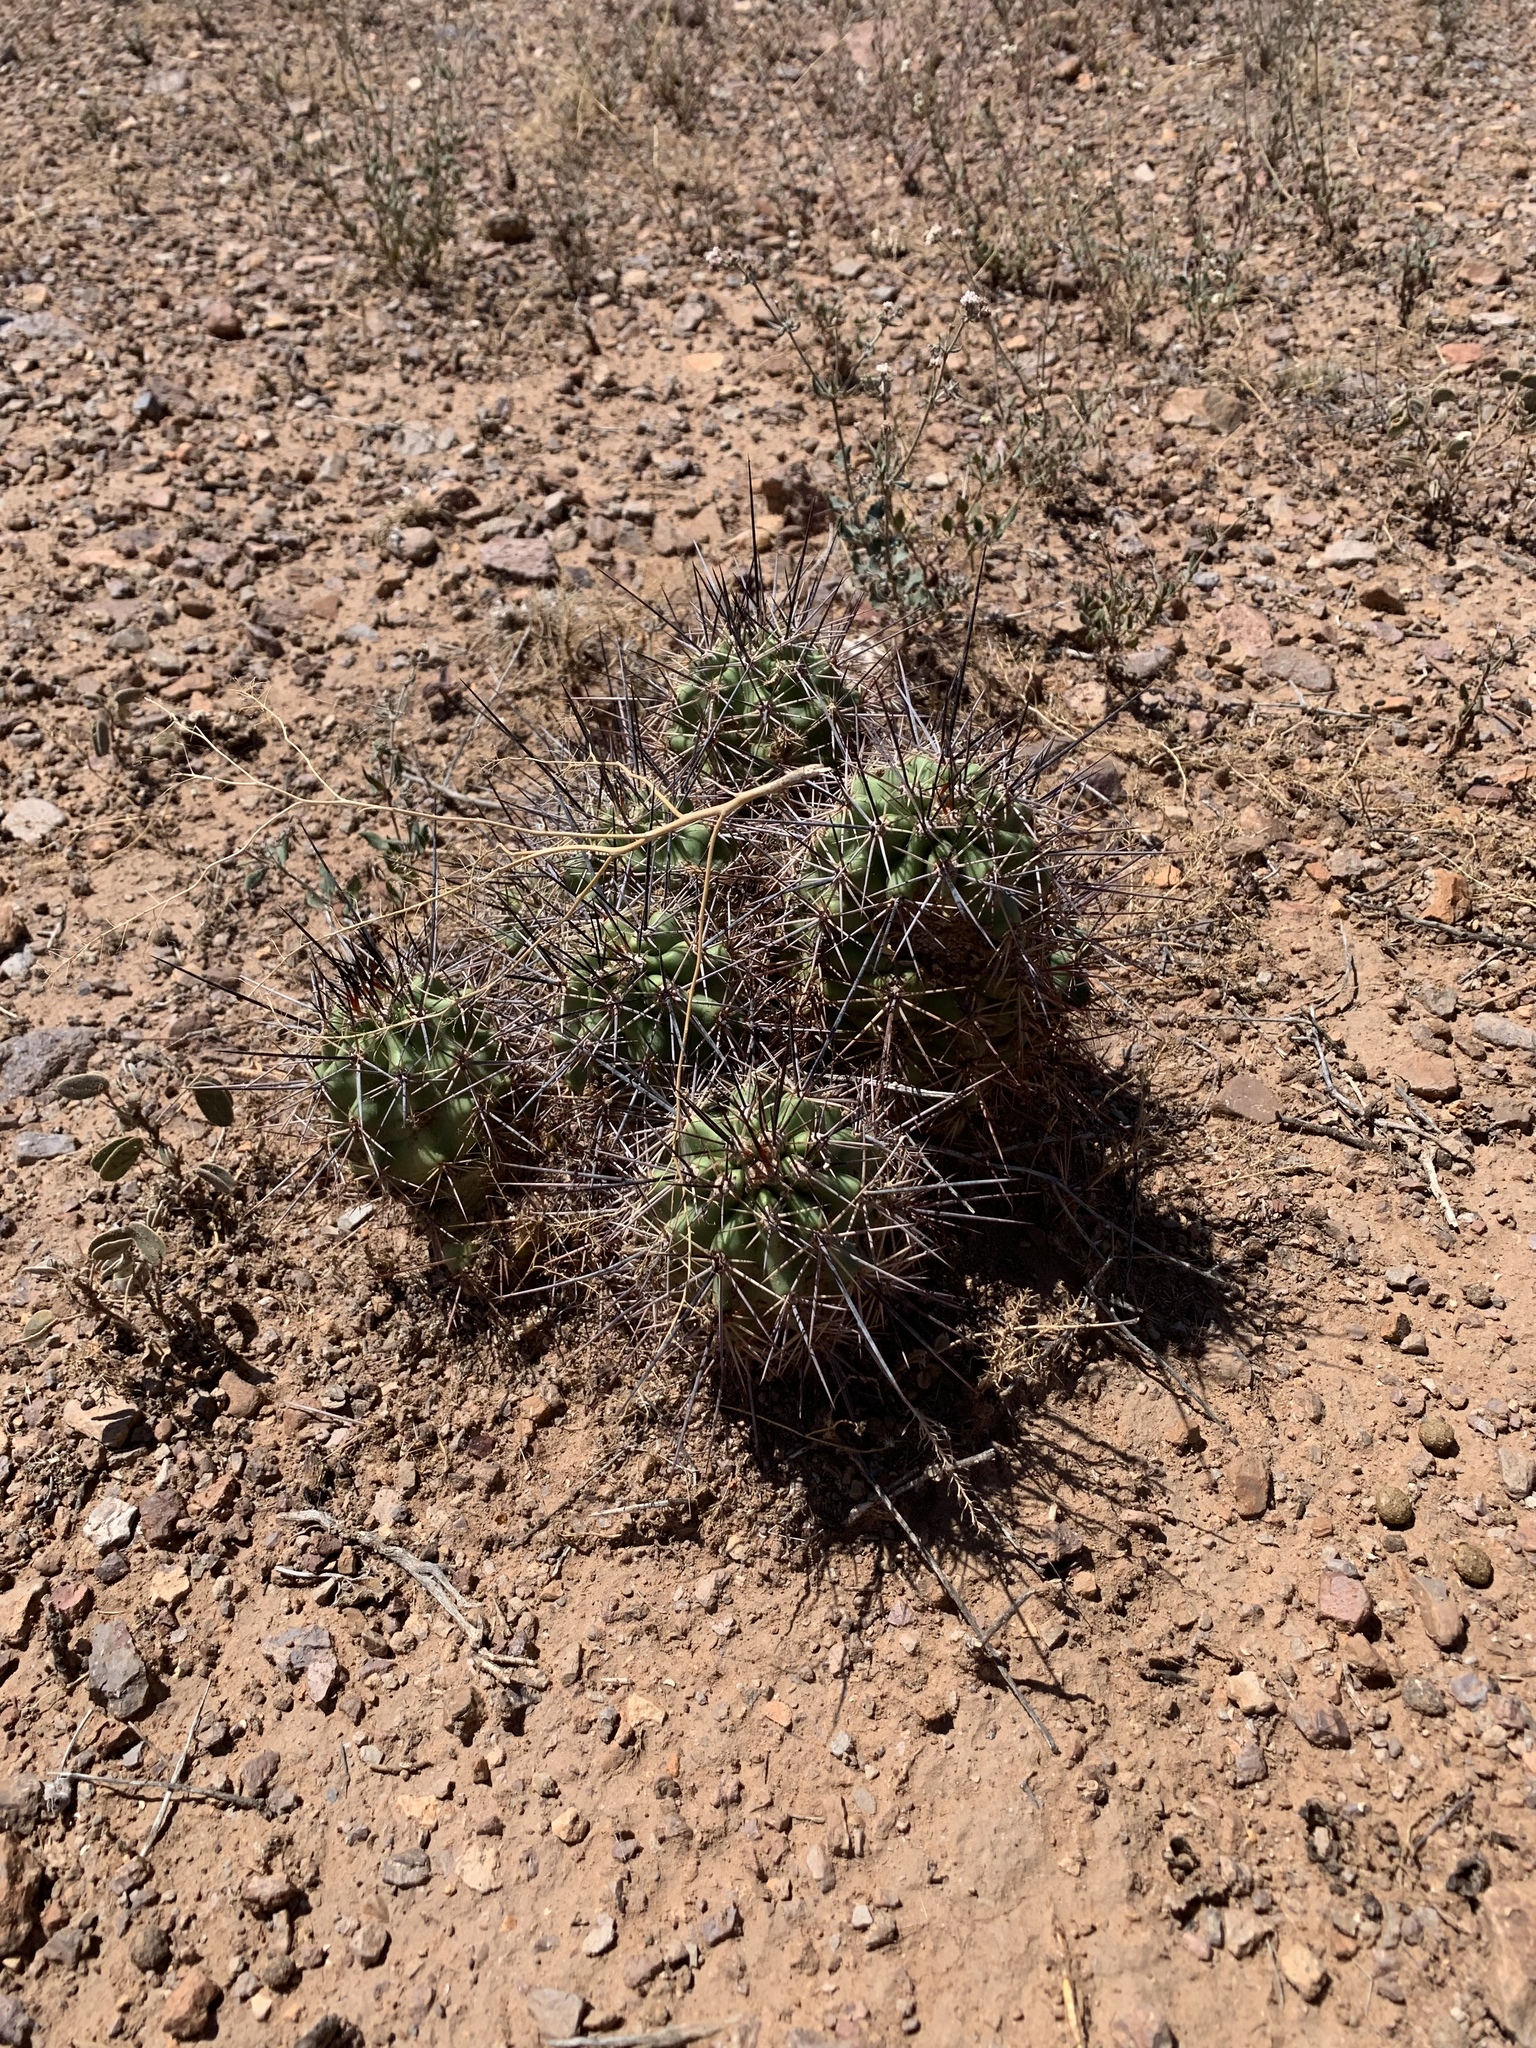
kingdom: Plantae
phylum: Tracheophyta
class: Magnoliopsida
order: Caryophyllales
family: Cactaceae
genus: Echinocereus
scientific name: Echinocereus coccineus
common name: Scarlet hedgehog cactus
